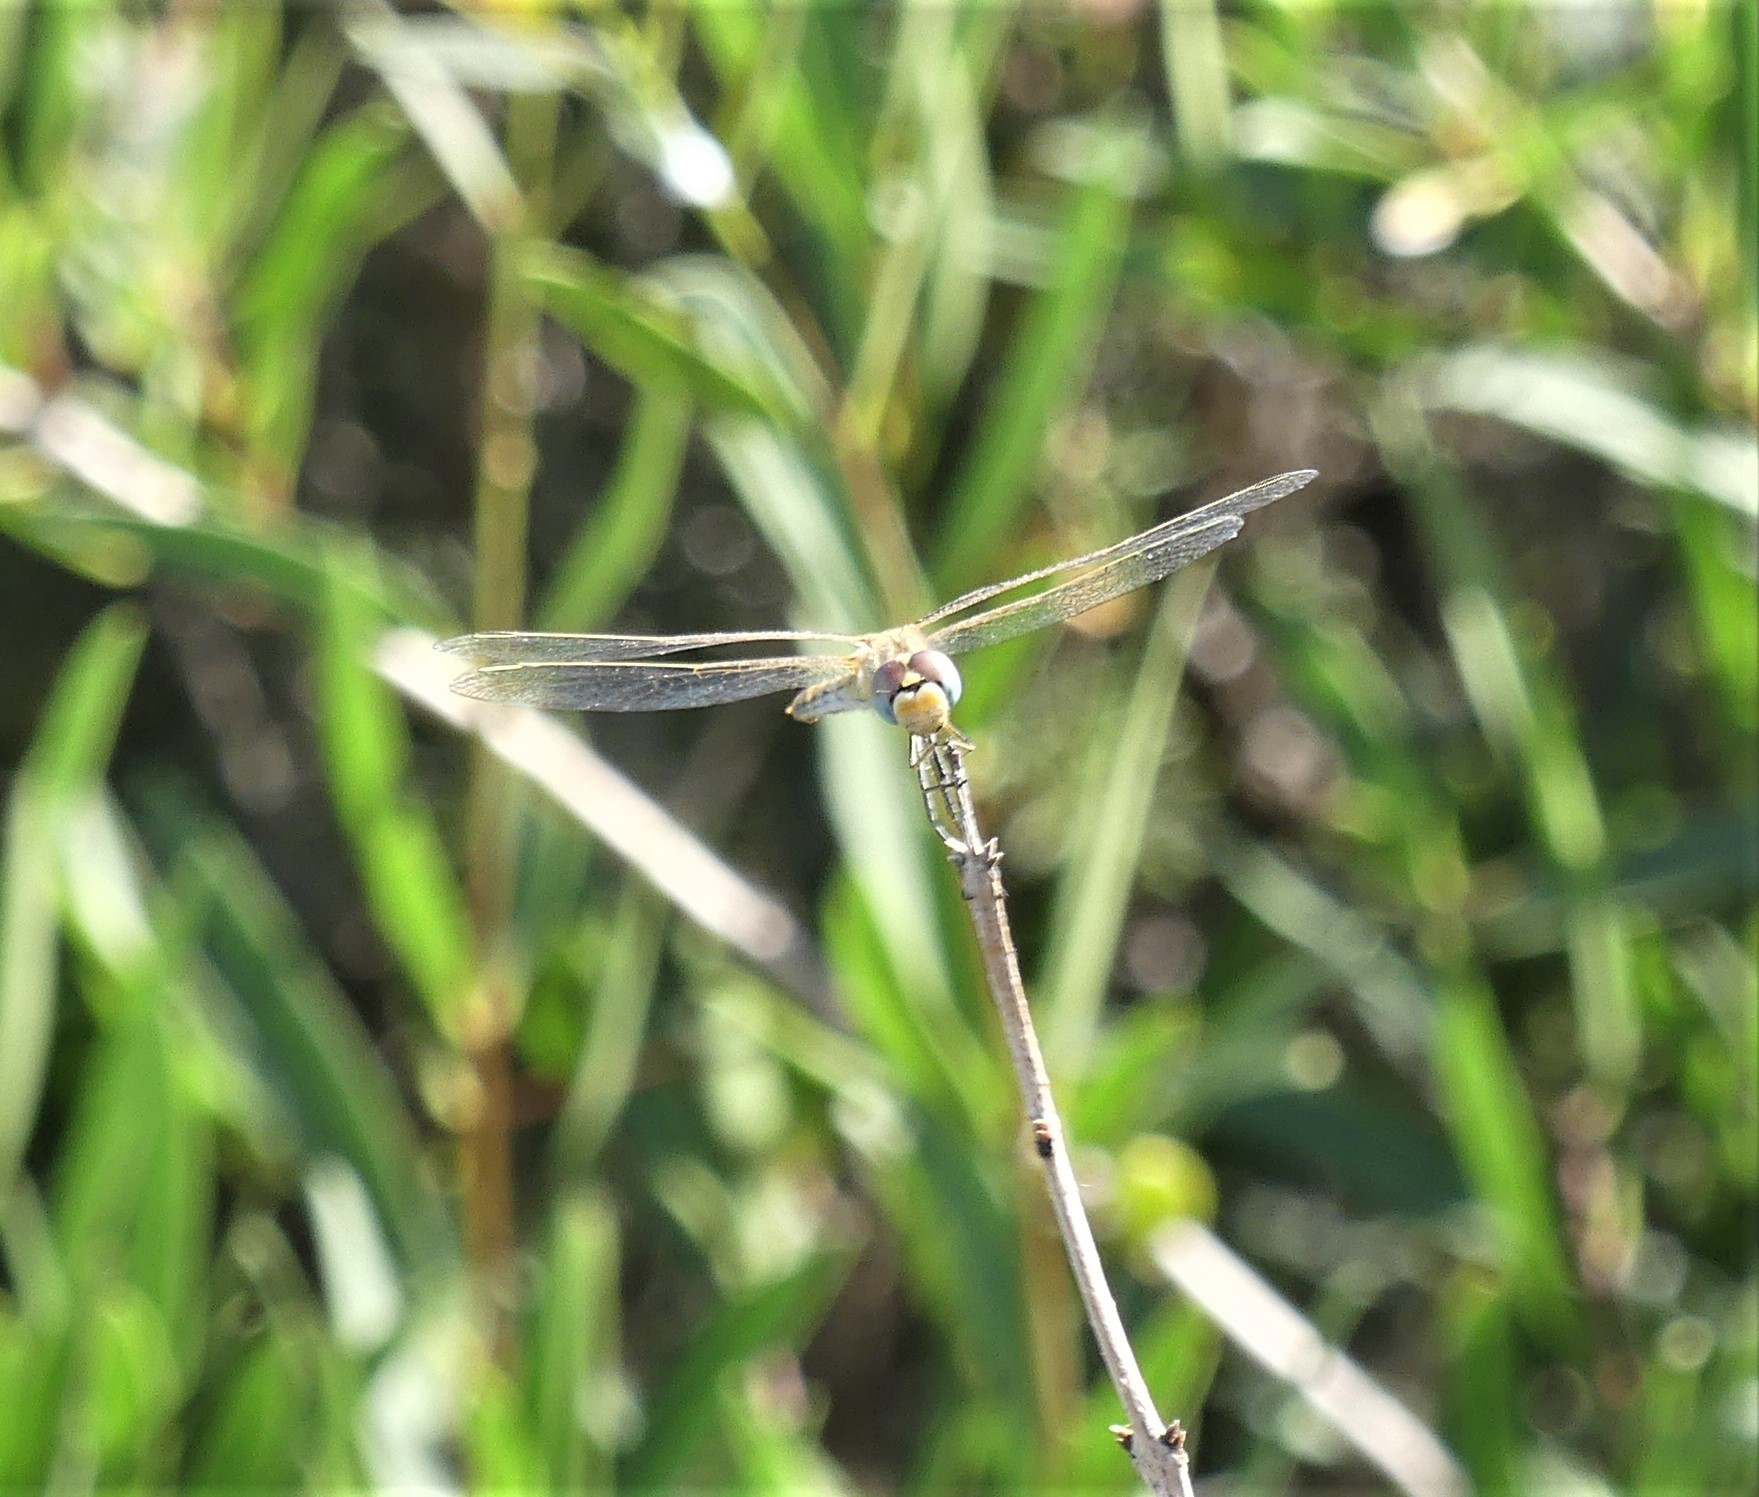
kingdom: Animalia
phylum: Arthropoda
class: Insecta
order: Odonata
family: Libellulidae
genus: Sympetrum
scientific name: Sympetrum fonscolombii
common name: Red-veined darter
